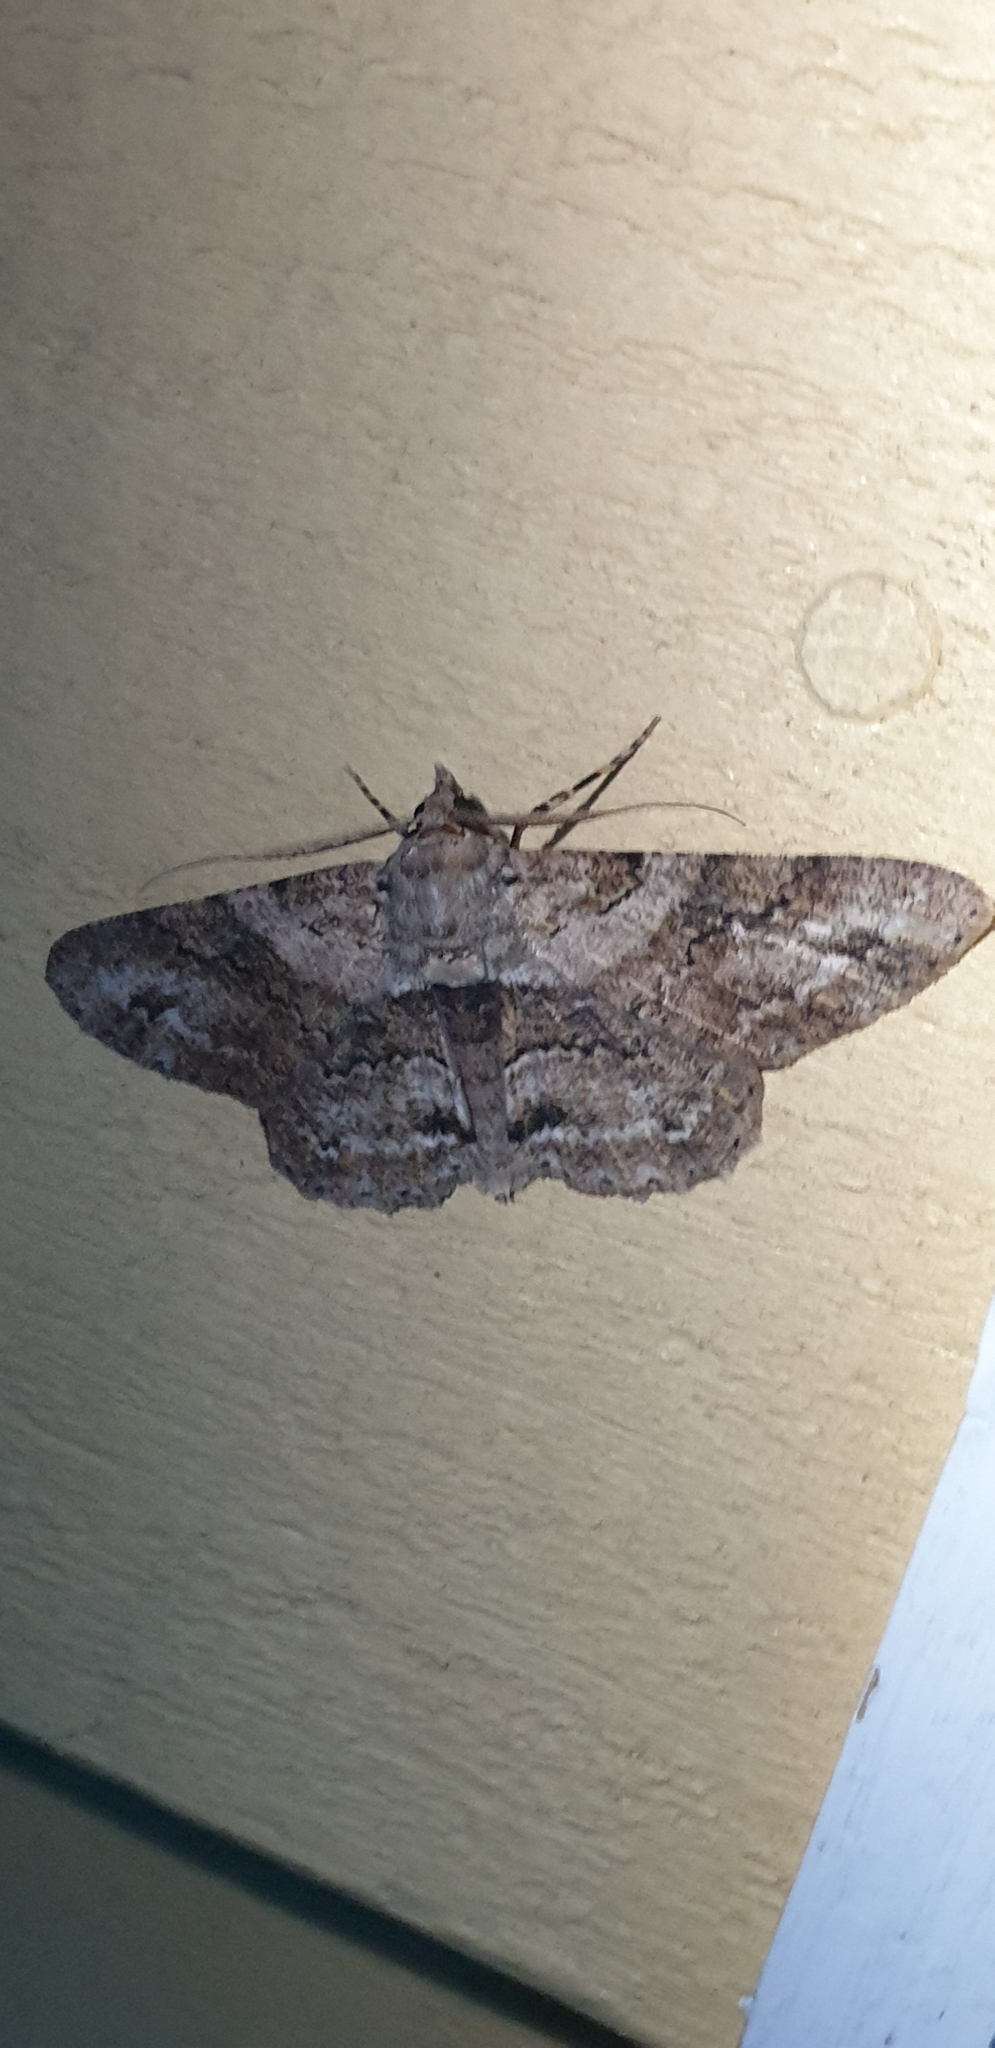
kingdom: Animalia
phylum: Arthropoda
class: Insecta
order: Lepidoptera
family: Geometridae
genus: Cleora
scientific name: Cleora repetita
